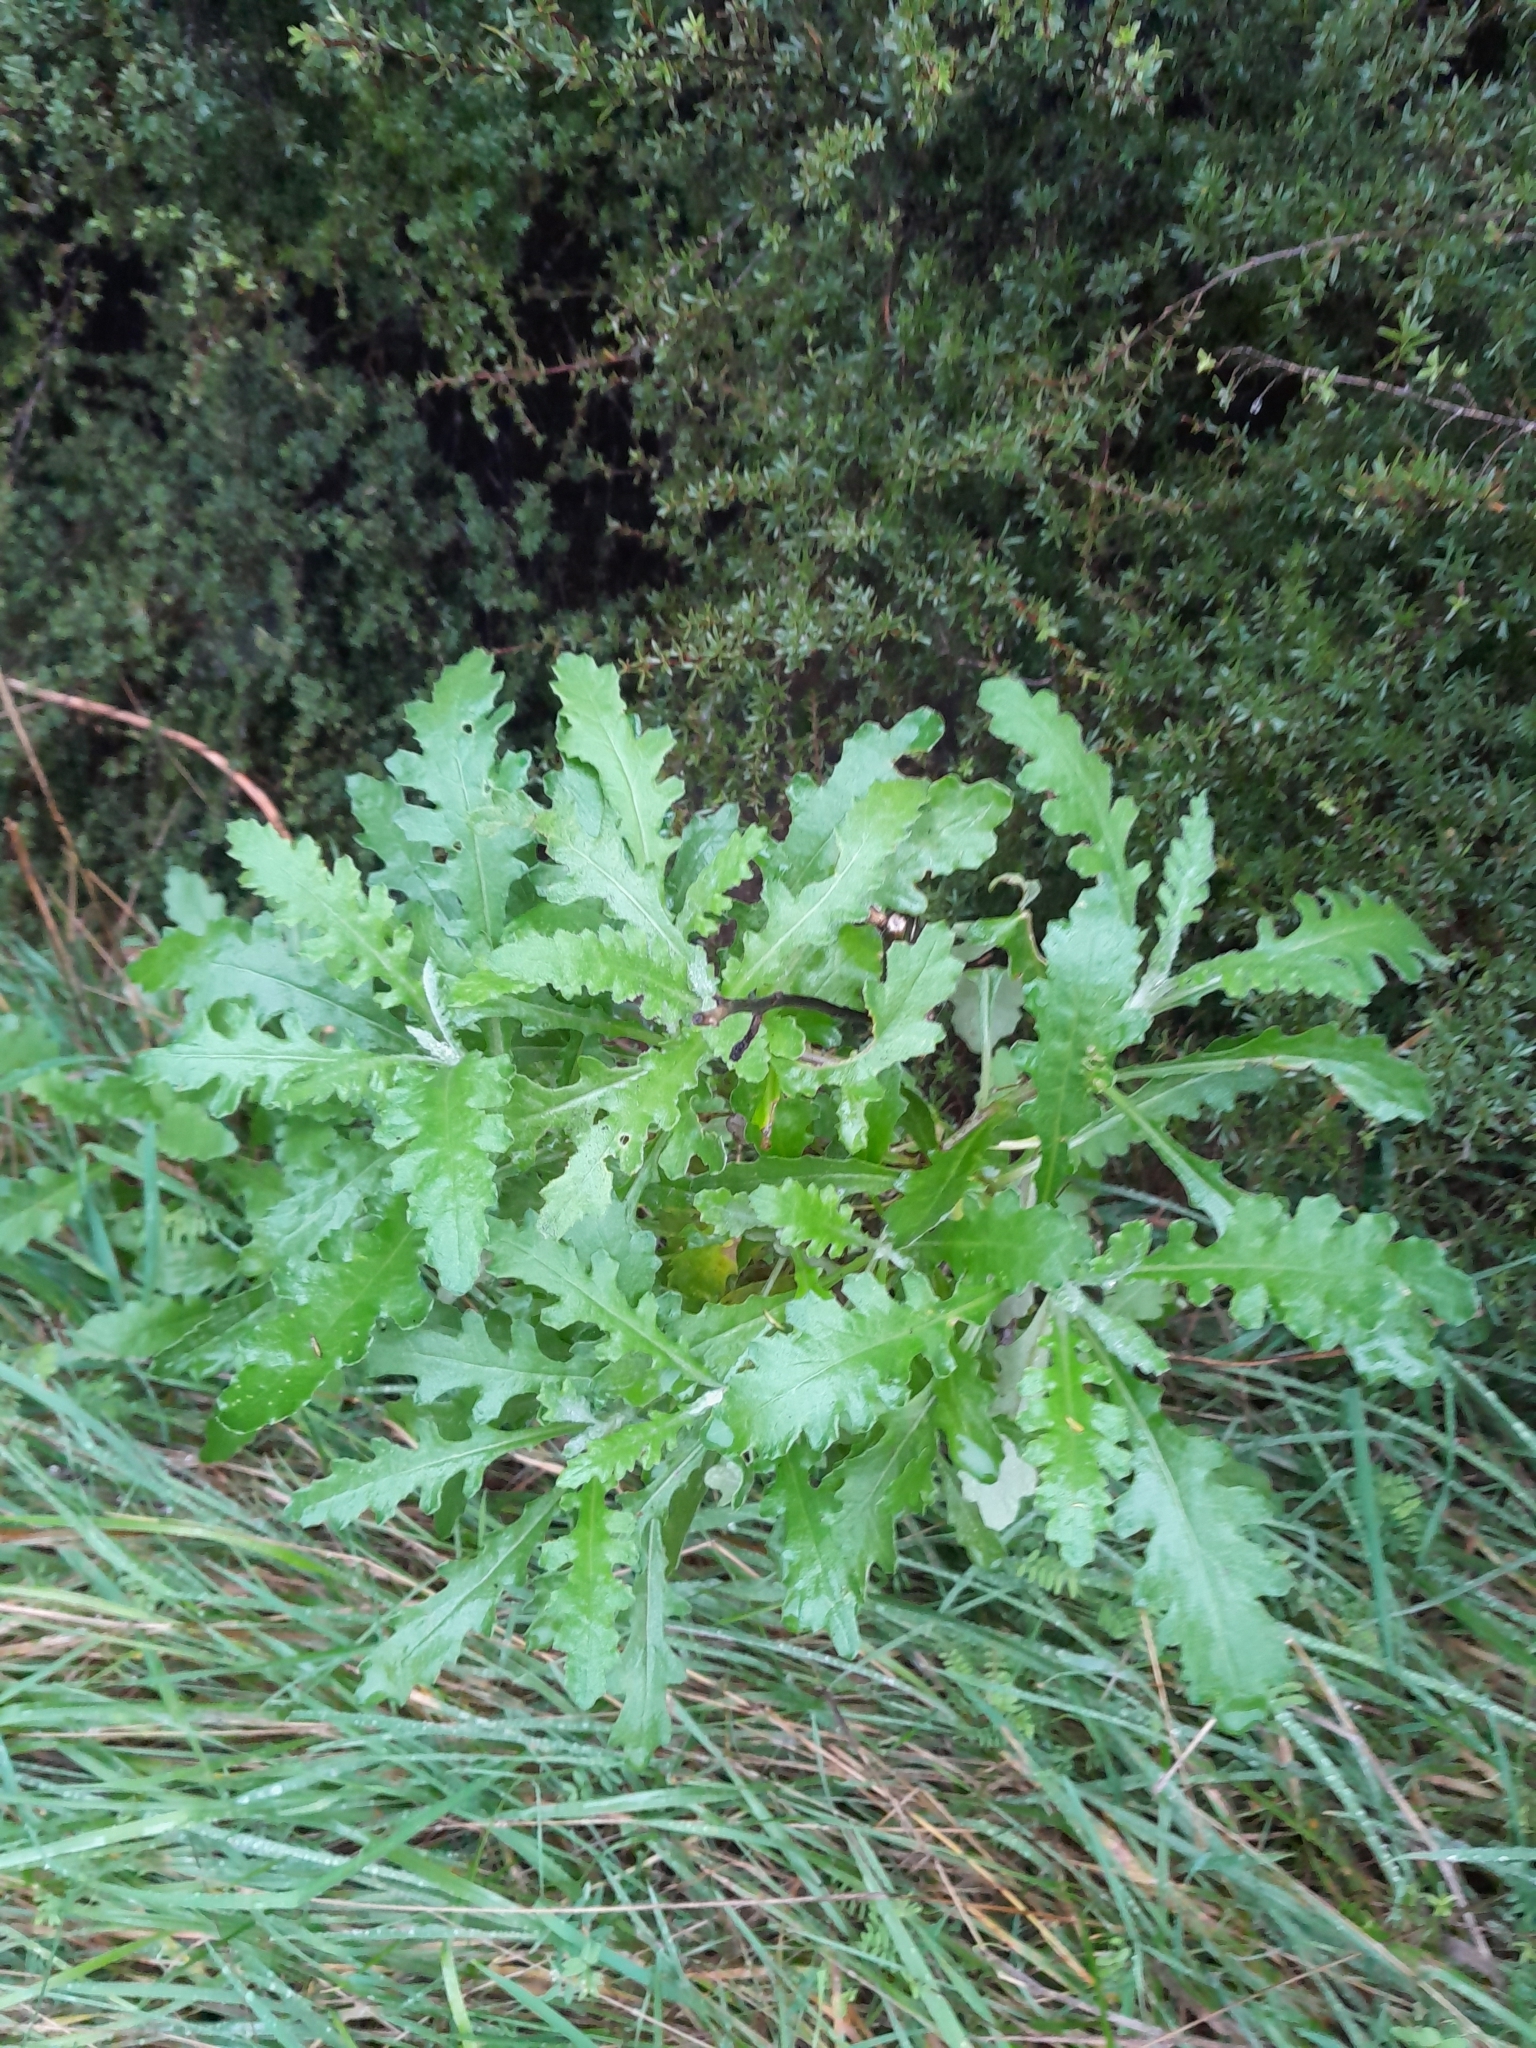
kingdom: Plantae
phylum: Tracheophyta
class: Magnoliopsida
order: Asterales
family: Asteraceae
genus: Senecio
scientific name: Senecio glomeratus
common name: Cutleaf burnweed
